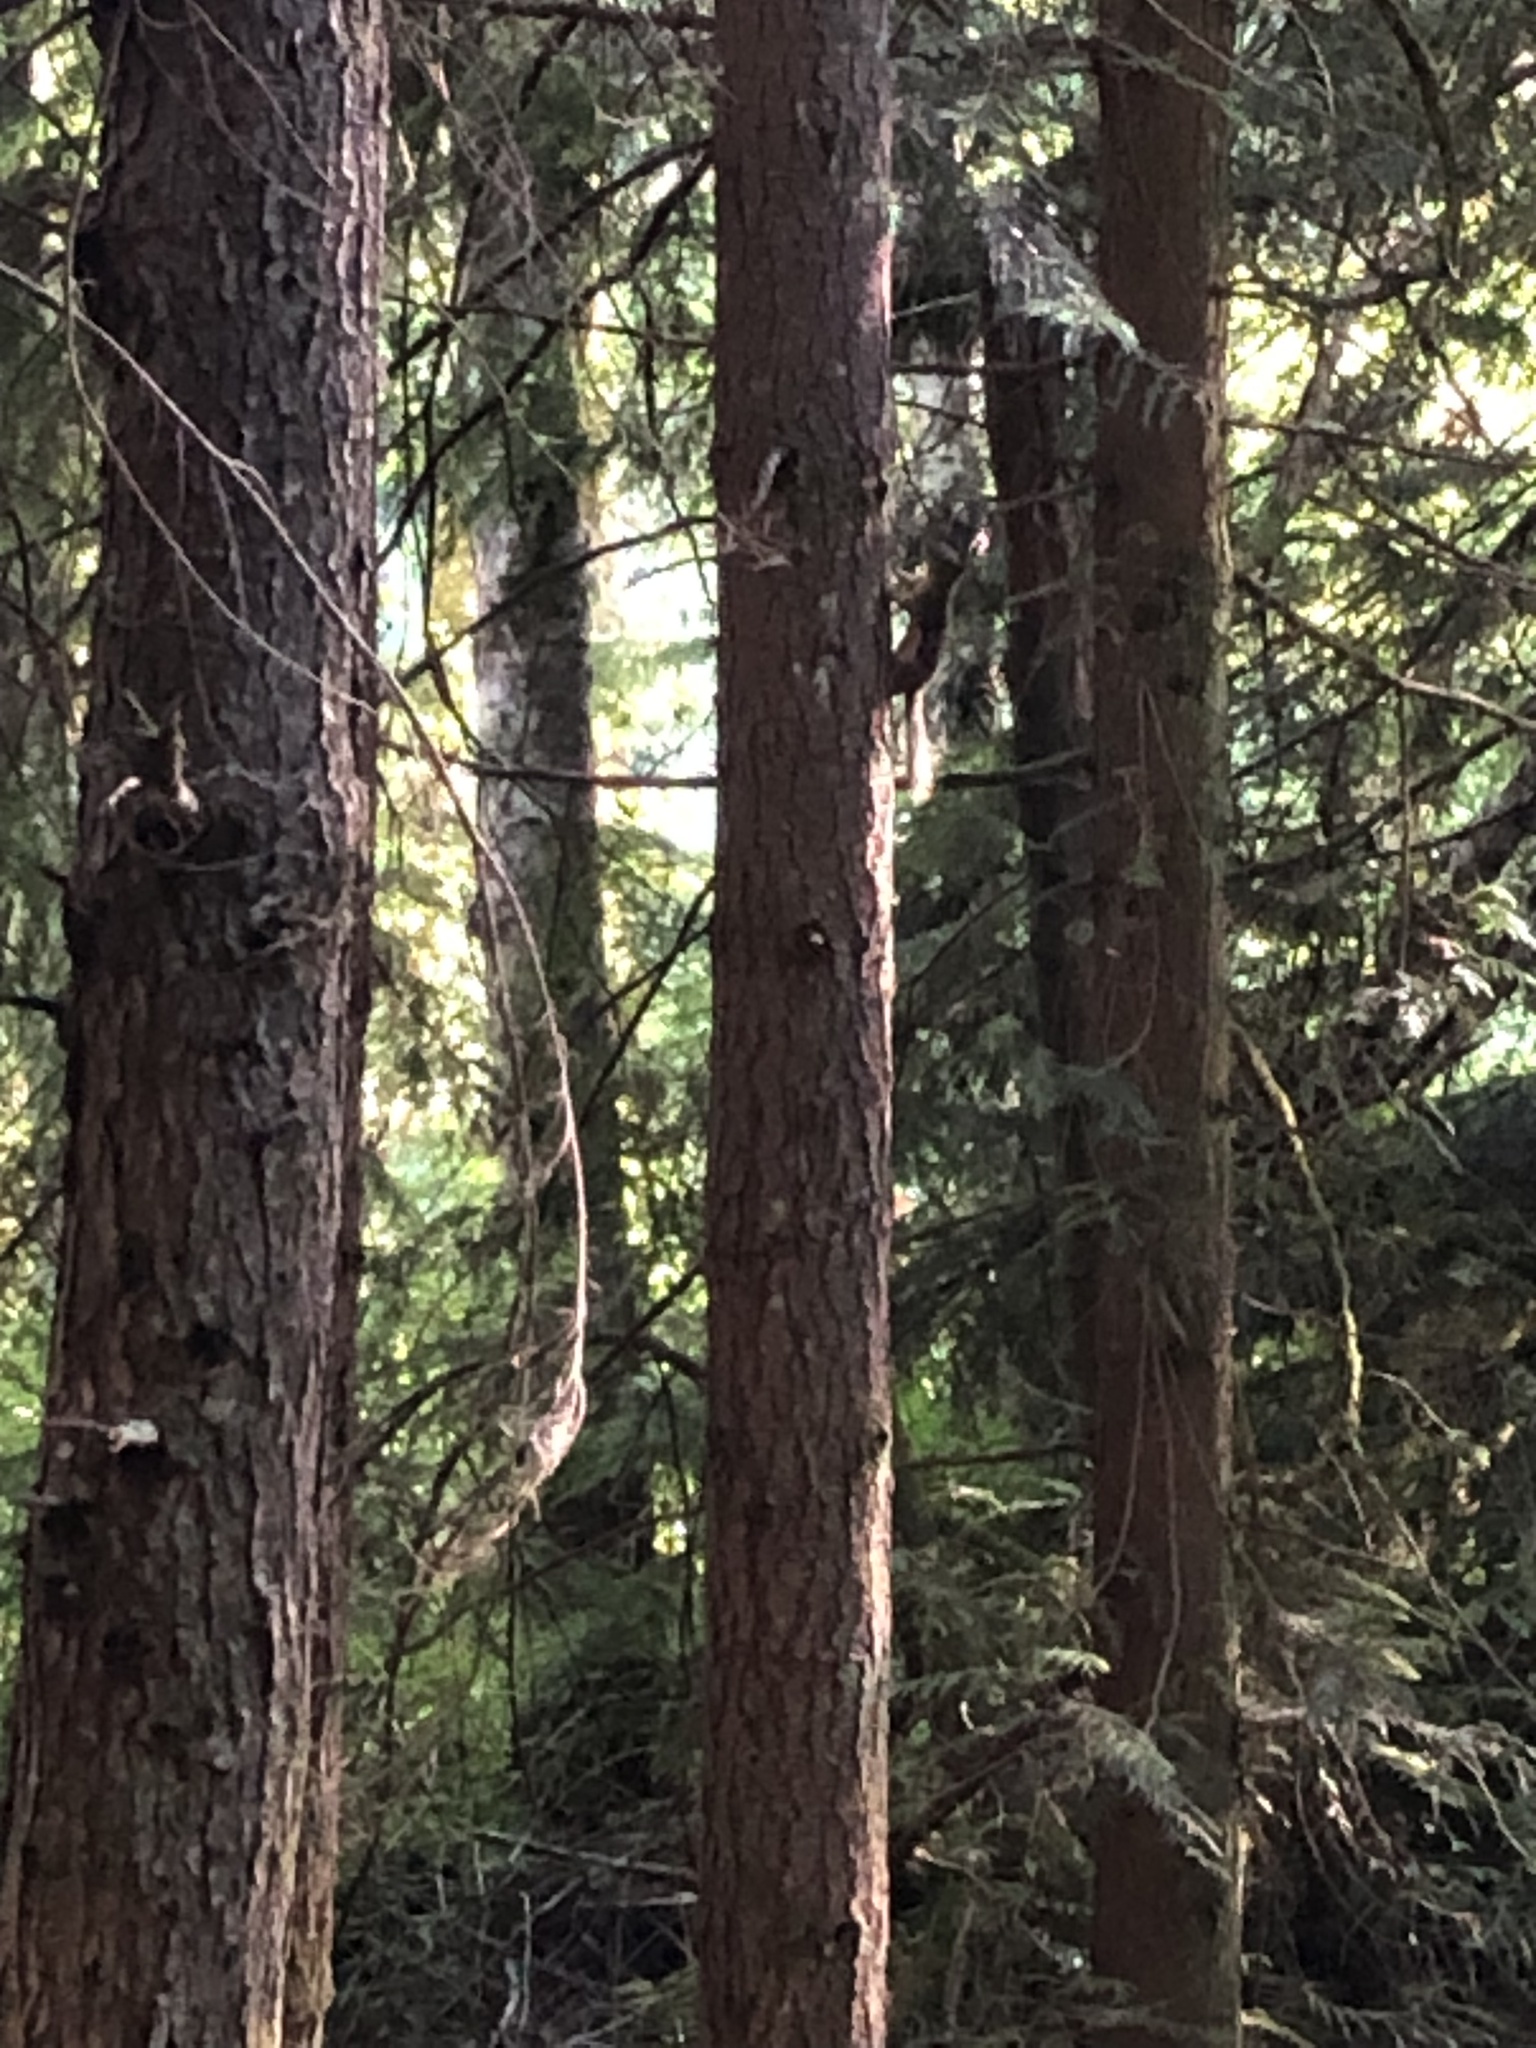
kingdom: Animalia
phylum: Chordata
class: Mammalia
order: Rodentia
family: Sciuridae
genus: Tamiasciurus
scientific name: Tamiasciurus douglasii
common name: Douglas's squirrel
